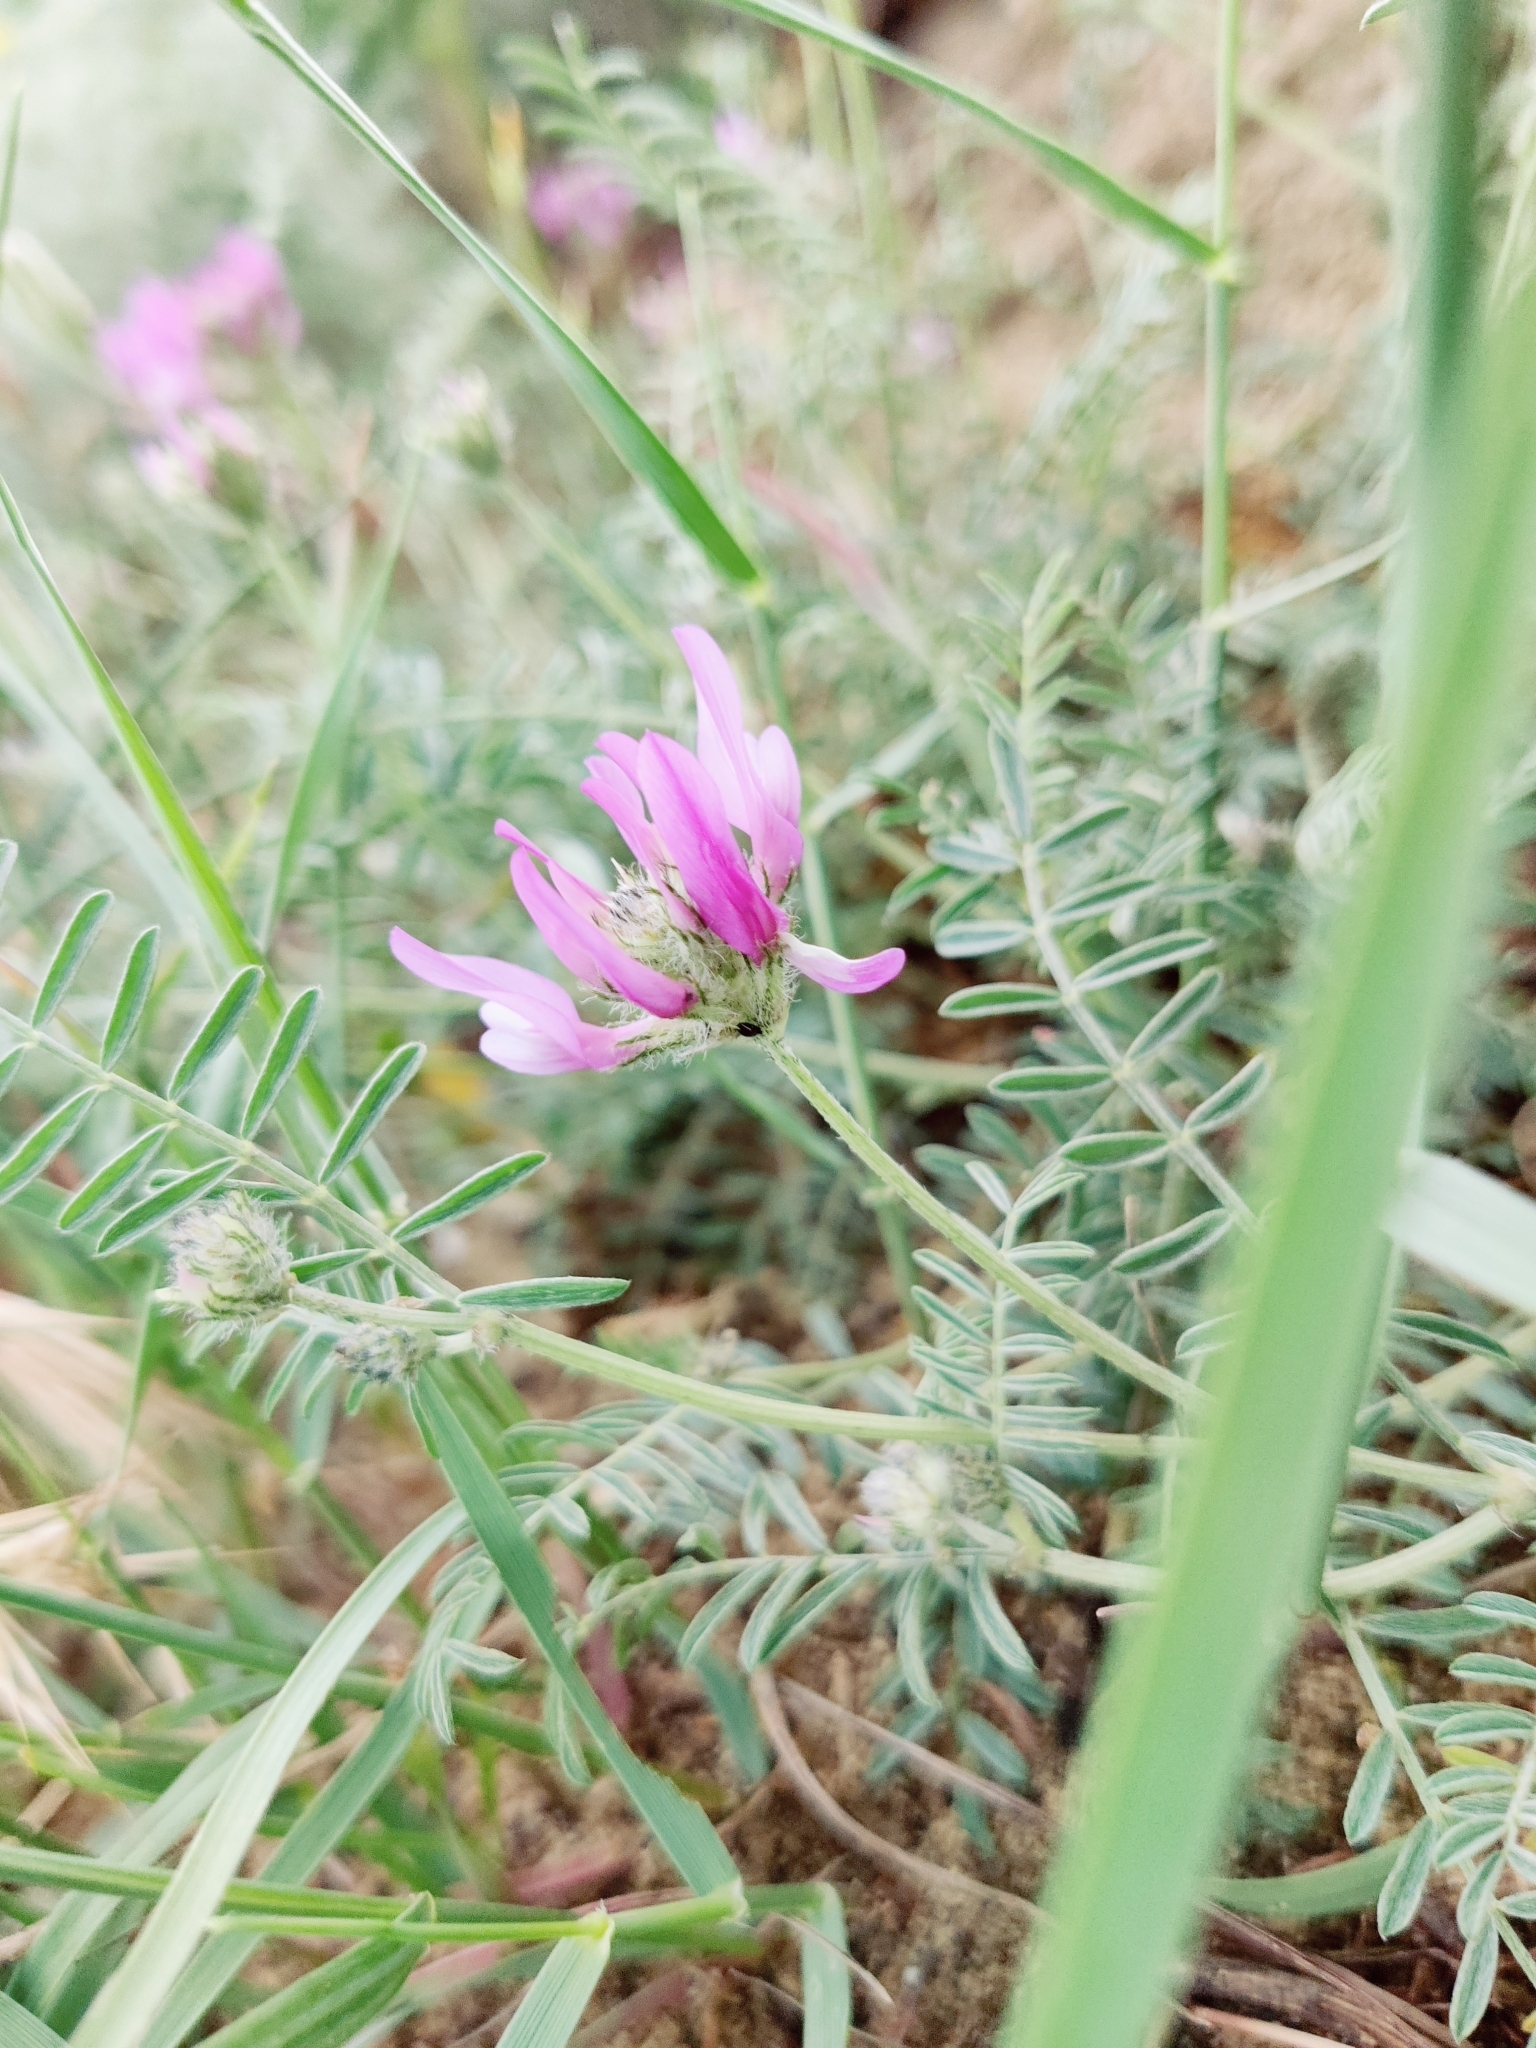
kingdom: Plantae
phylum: Tracheophyta
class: Magnoliopsida
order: Fabales
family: Fabaceae
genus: Astragalus
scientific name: Astragalus onobrychis
